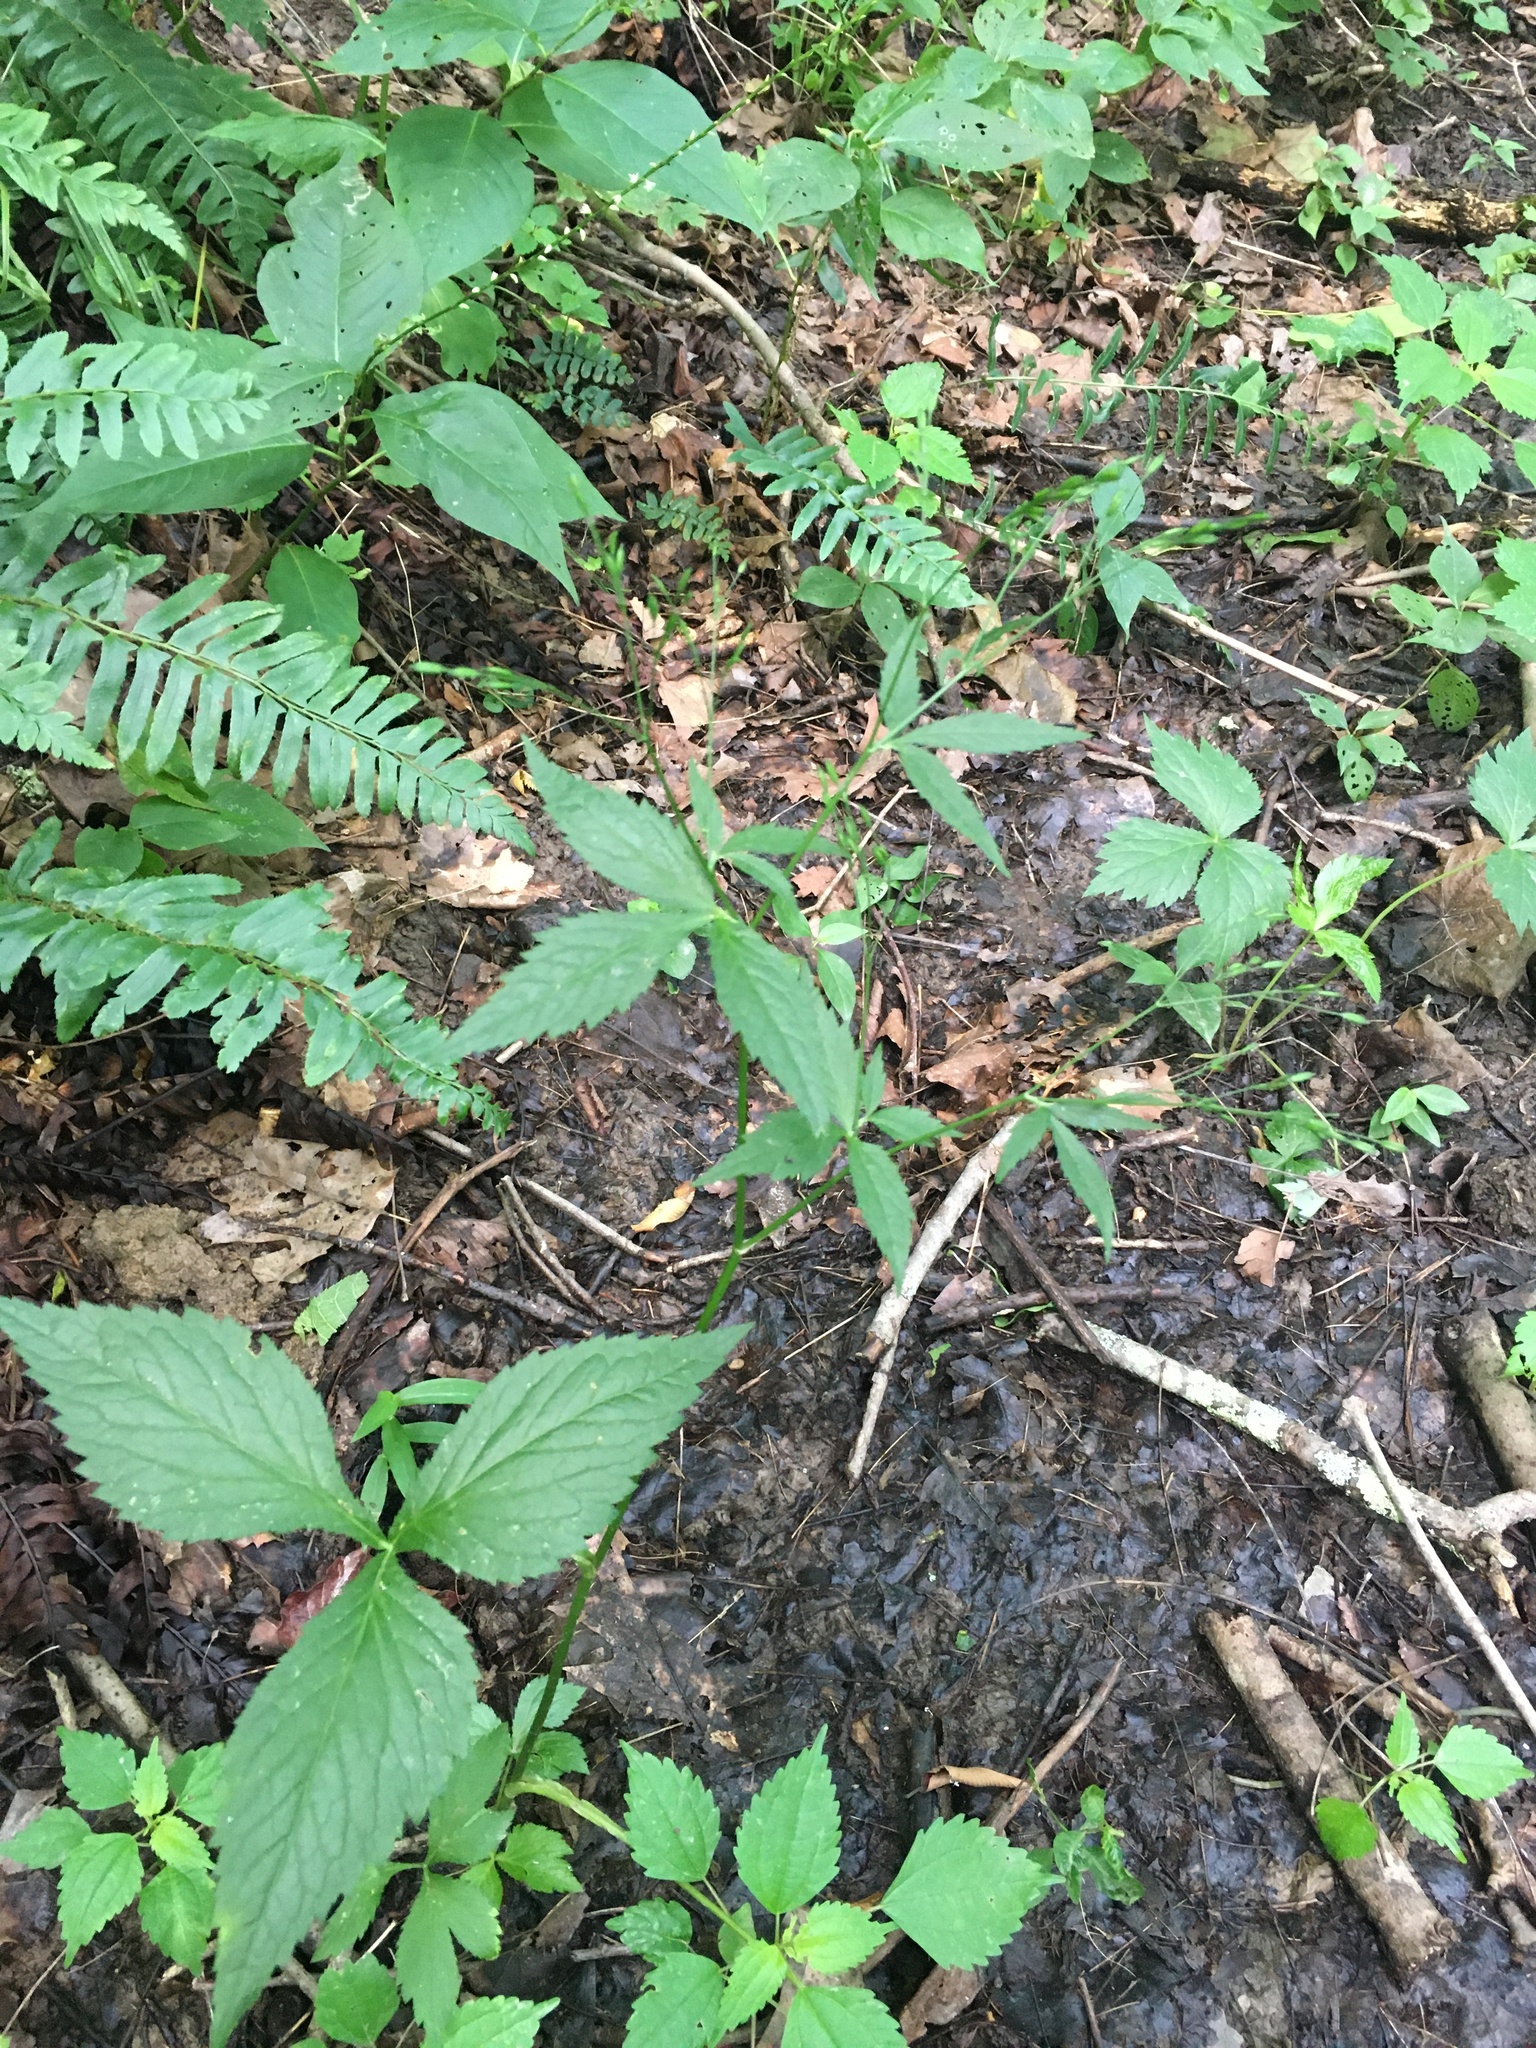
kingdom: Plantae
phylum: Tracheophyta
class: Magnoliopsida
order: Apiales
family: Apiaceae
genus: Cryptotaenia
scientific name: Cryptotaenia canadensis
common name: Honewort
